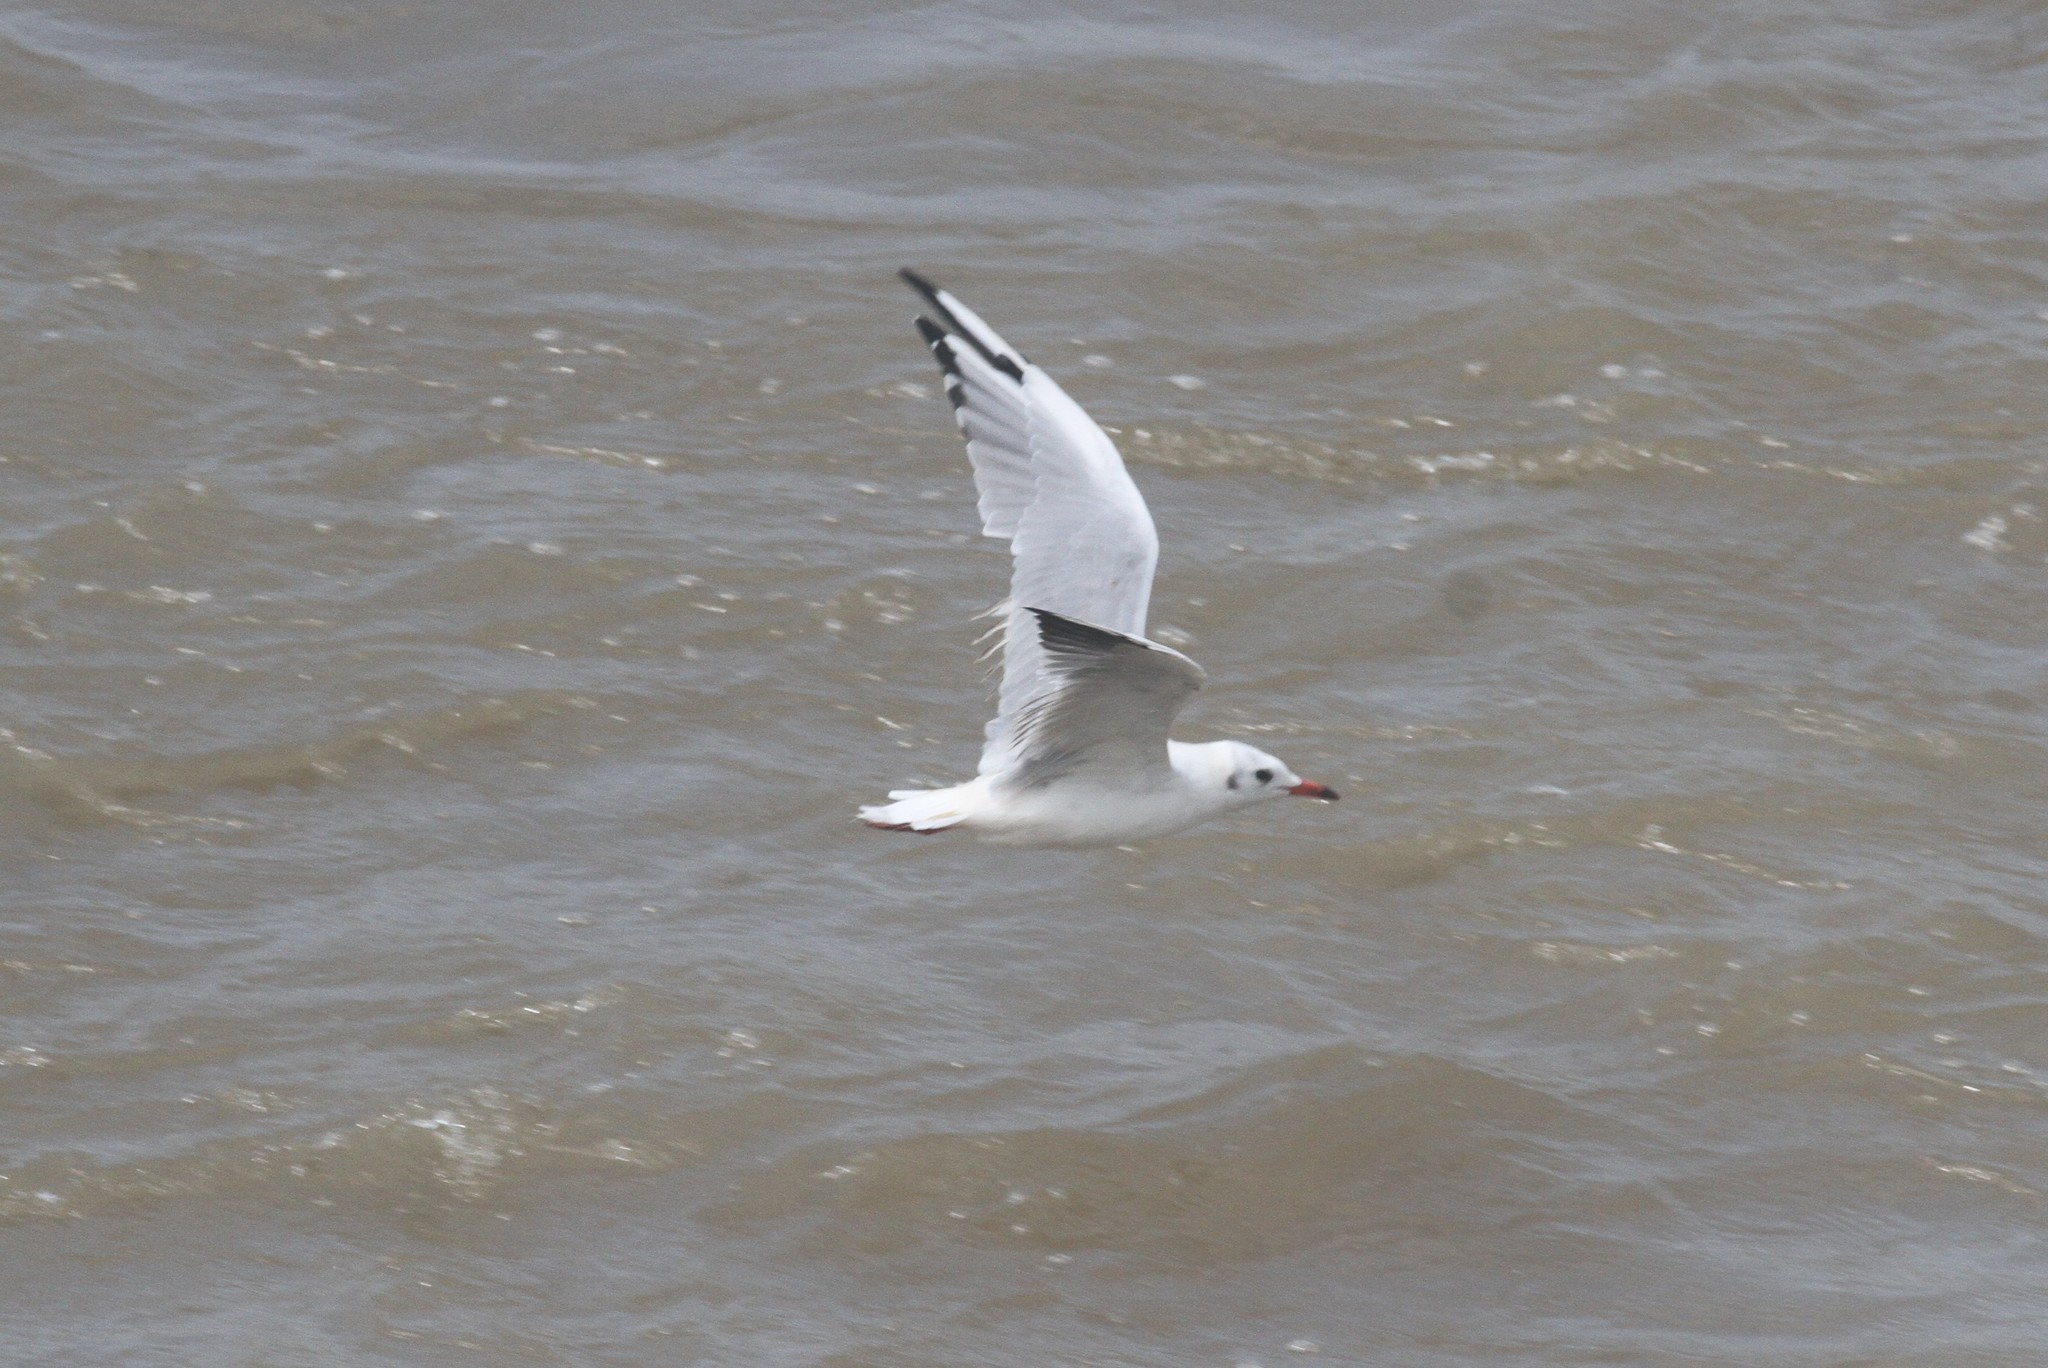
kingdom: Animalia
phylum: Chordata
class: Aves
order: Charadriiformes
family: Laridae
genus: Chroicocephalus
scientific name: Chroicocephalus ridibundus
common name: Black-headed gull
